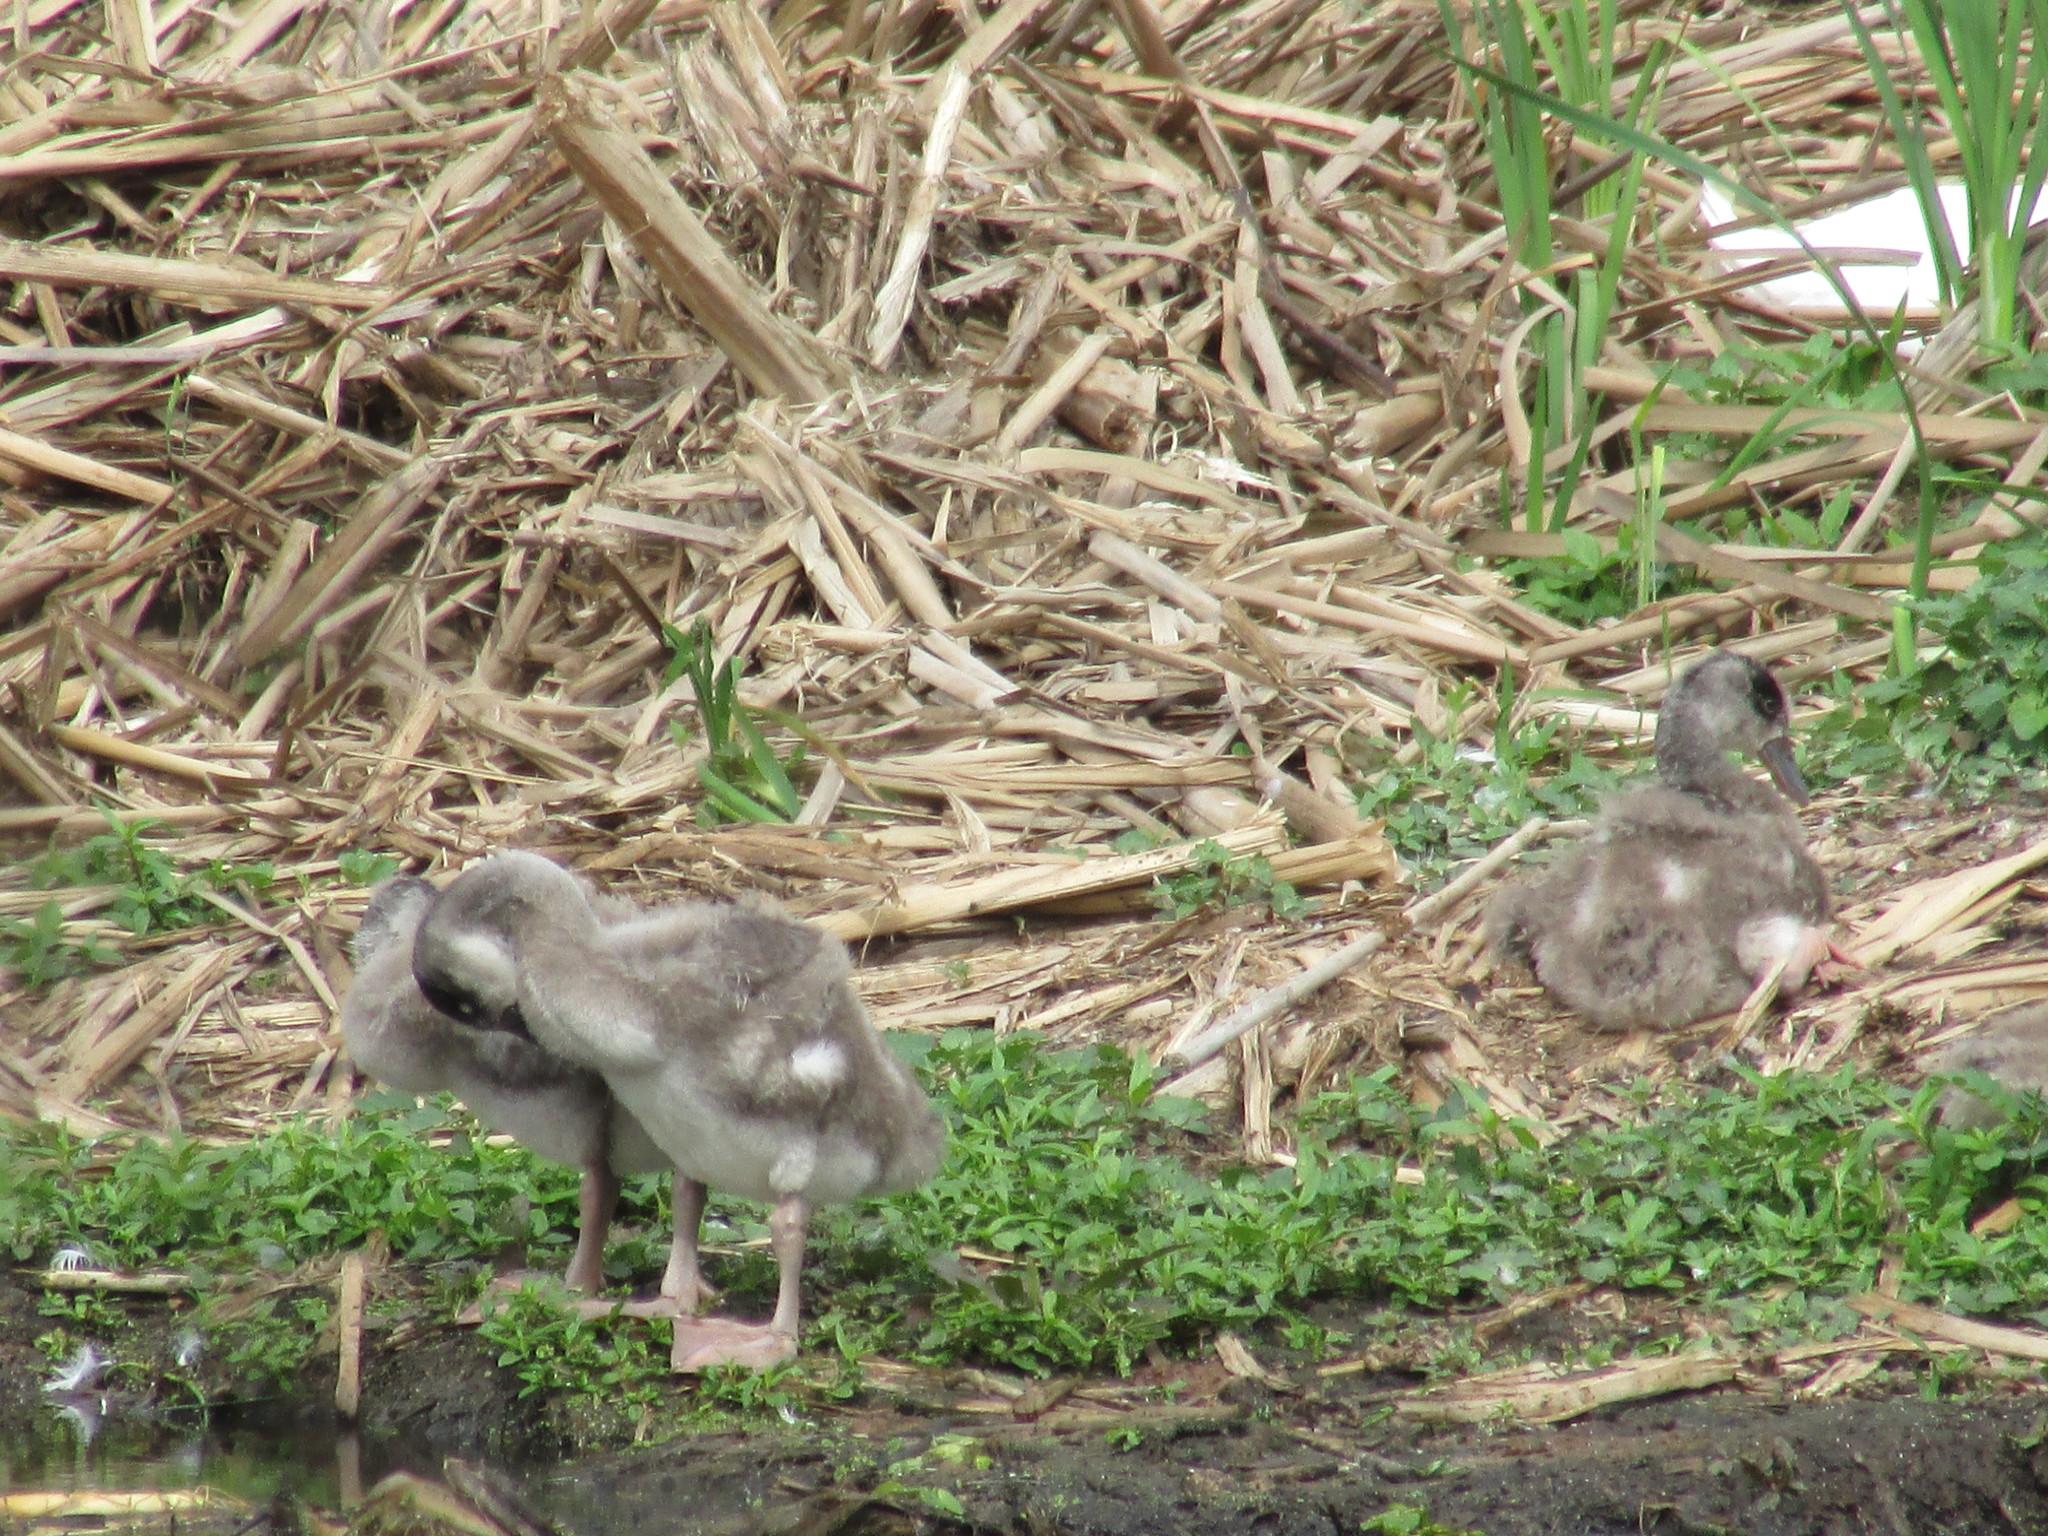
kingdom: Animalia
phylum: Chordata
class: Aves
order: Anseriformes
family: Anatidae
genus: Coscoroba
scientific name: Coscoroba coscoroba
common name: Coscoroba swan
